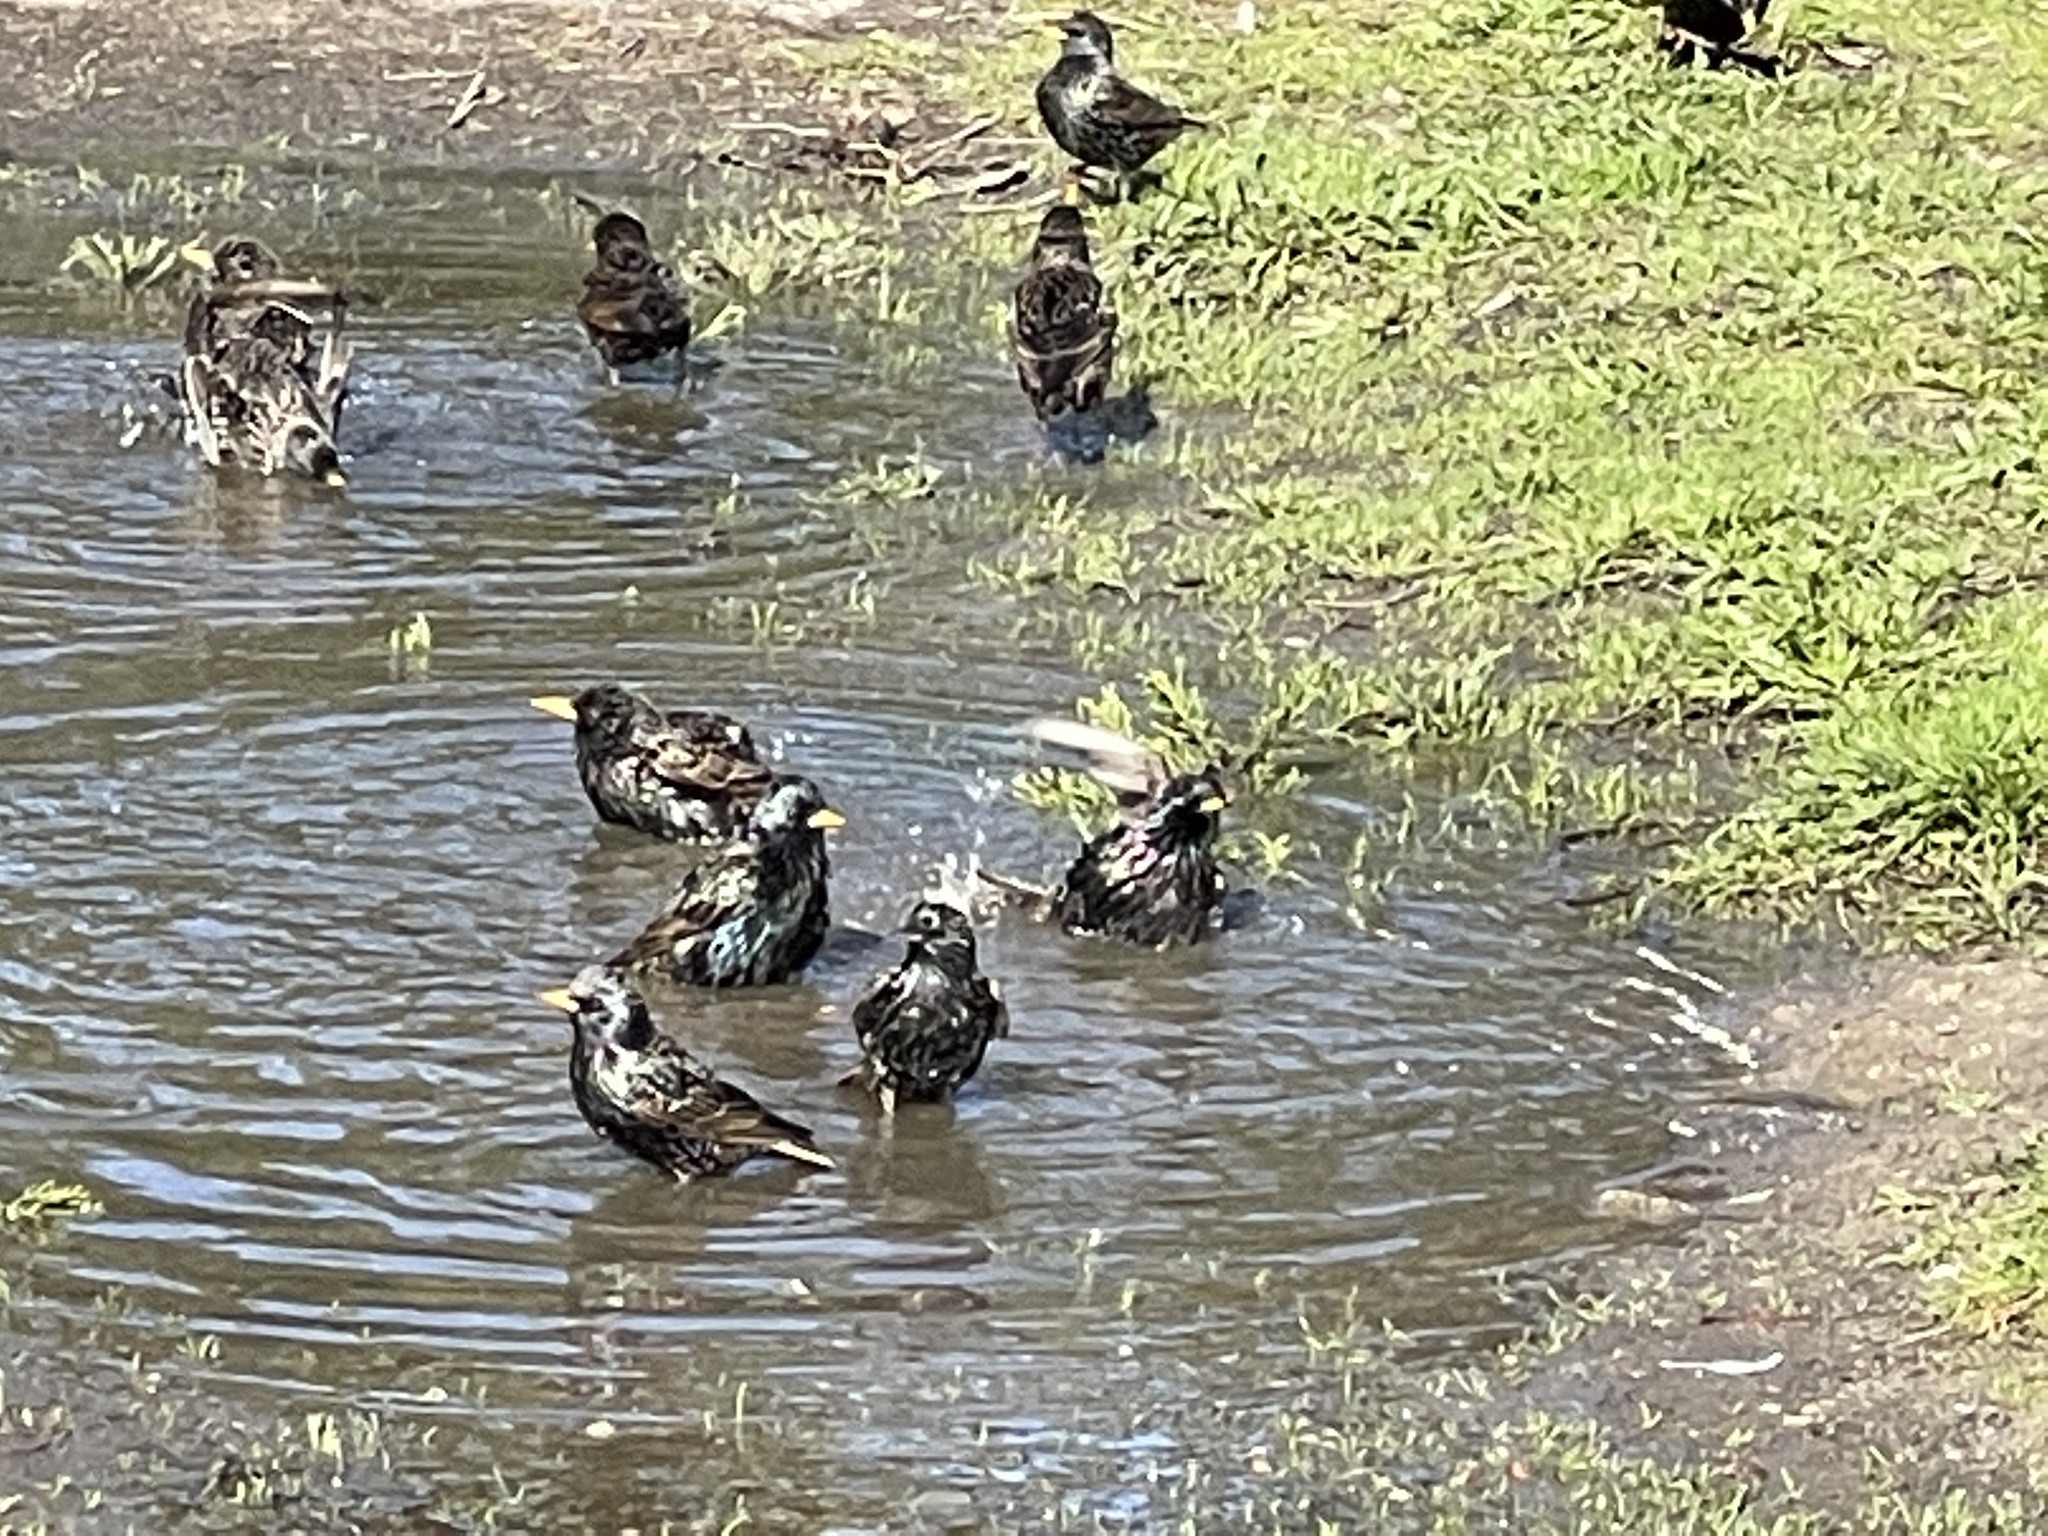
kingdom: Animalia
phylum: Chordata
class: Aves
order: Passeriformes
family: Sturnidae
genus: Sturnus
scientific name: Sturnus vulgaris
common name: Common starling
